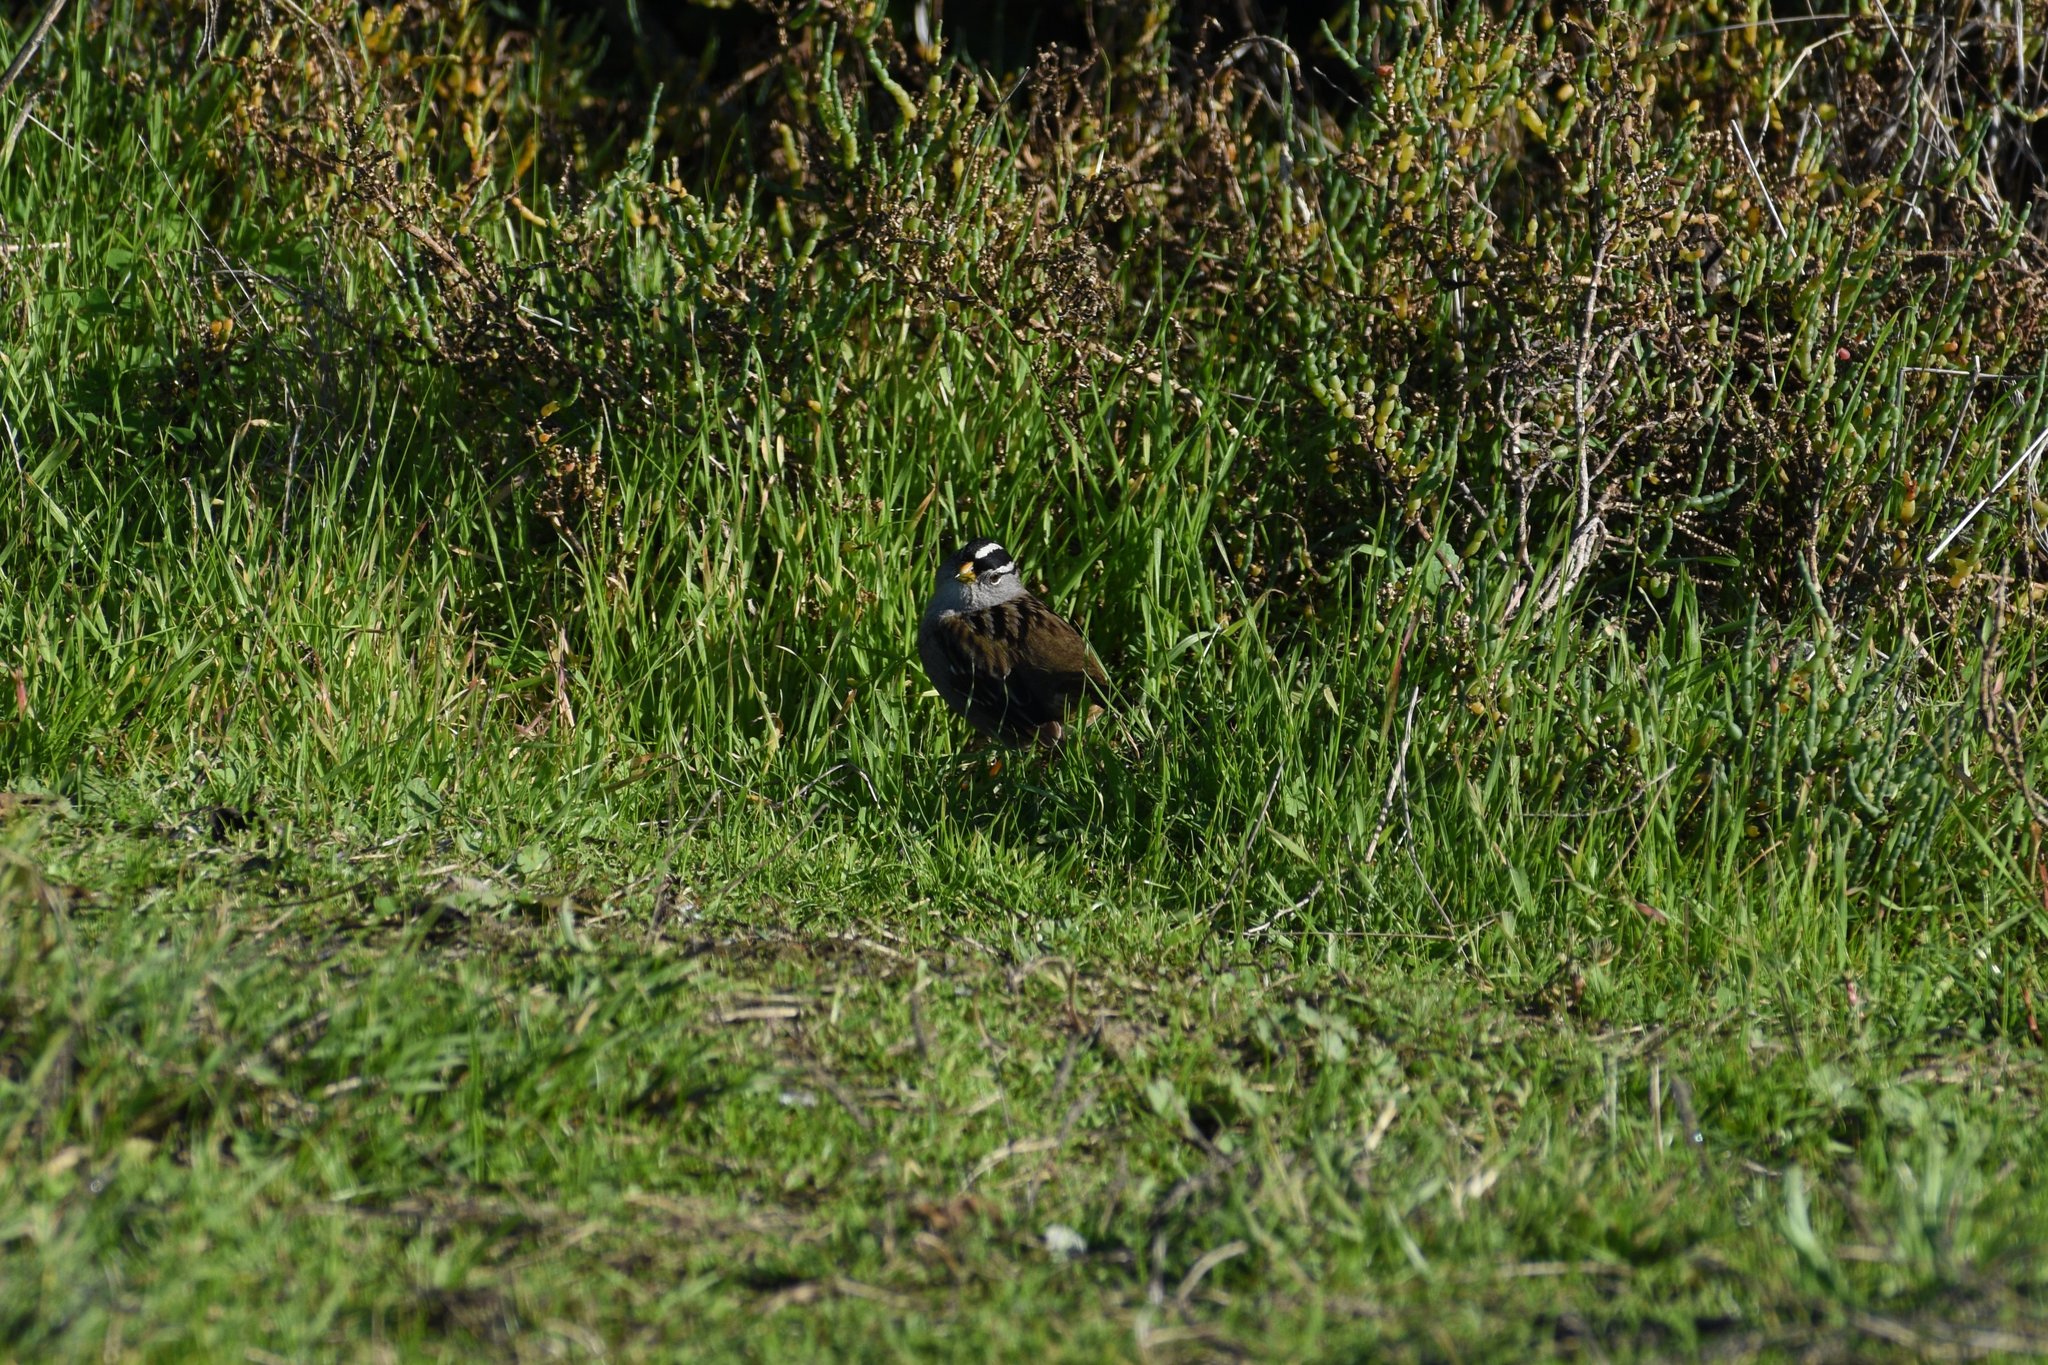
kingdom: Animalia
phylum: Chordata
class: Aves
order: Passeriformes
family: Passerellidae
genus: Zonotrichia
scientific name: Zonotrichia leucophrys
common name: White-crowned sparrow
